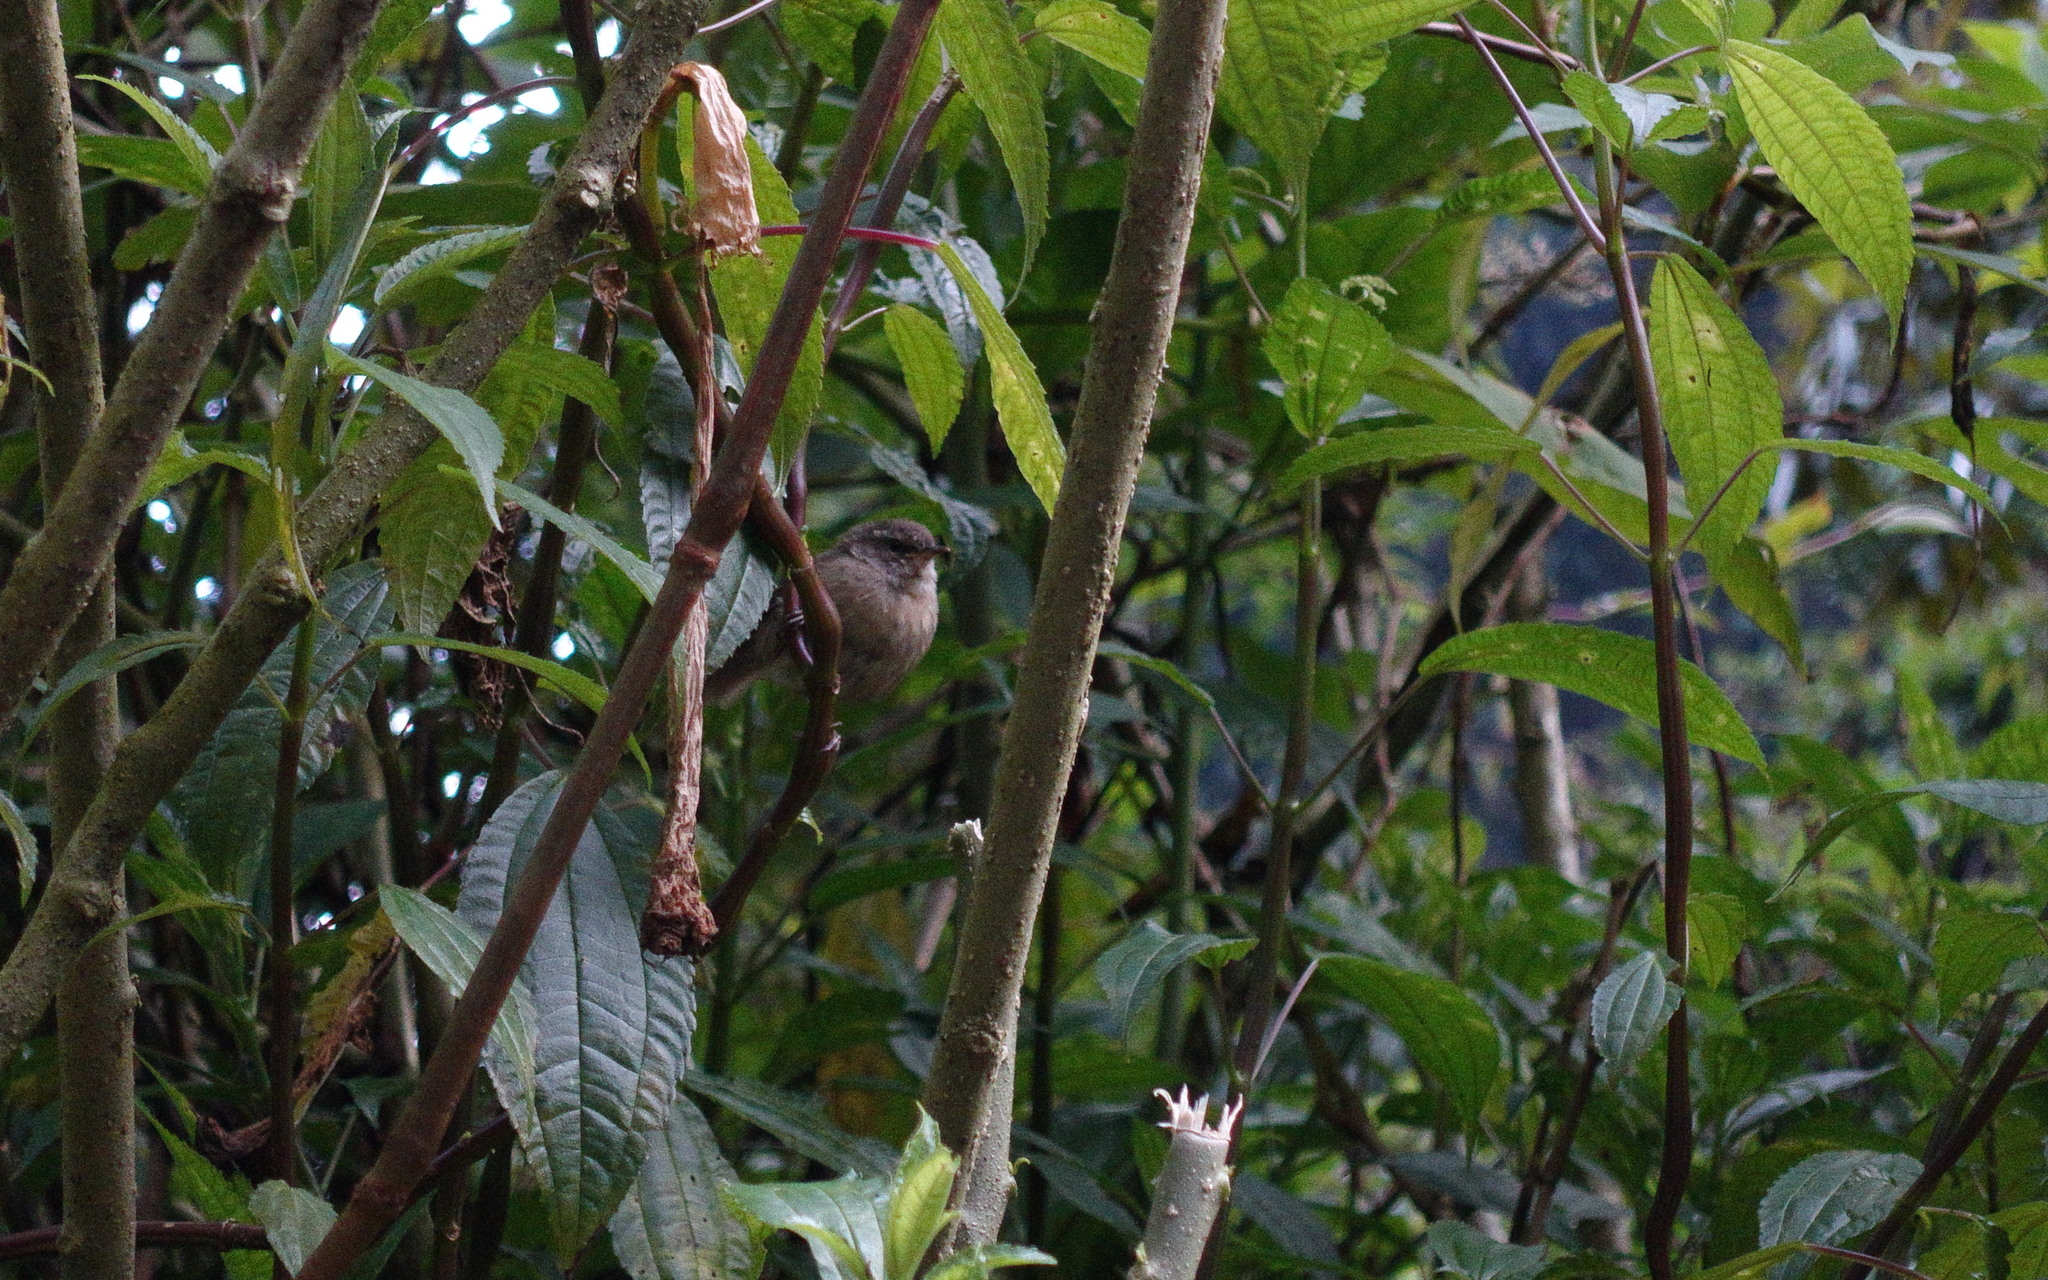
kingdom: Animalia
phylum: Chordata
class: Aves
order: Passeriformes
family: Cettiidae
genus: Horornis
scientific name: Horornis flavolivaceus
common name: Aberrant bush warbler
